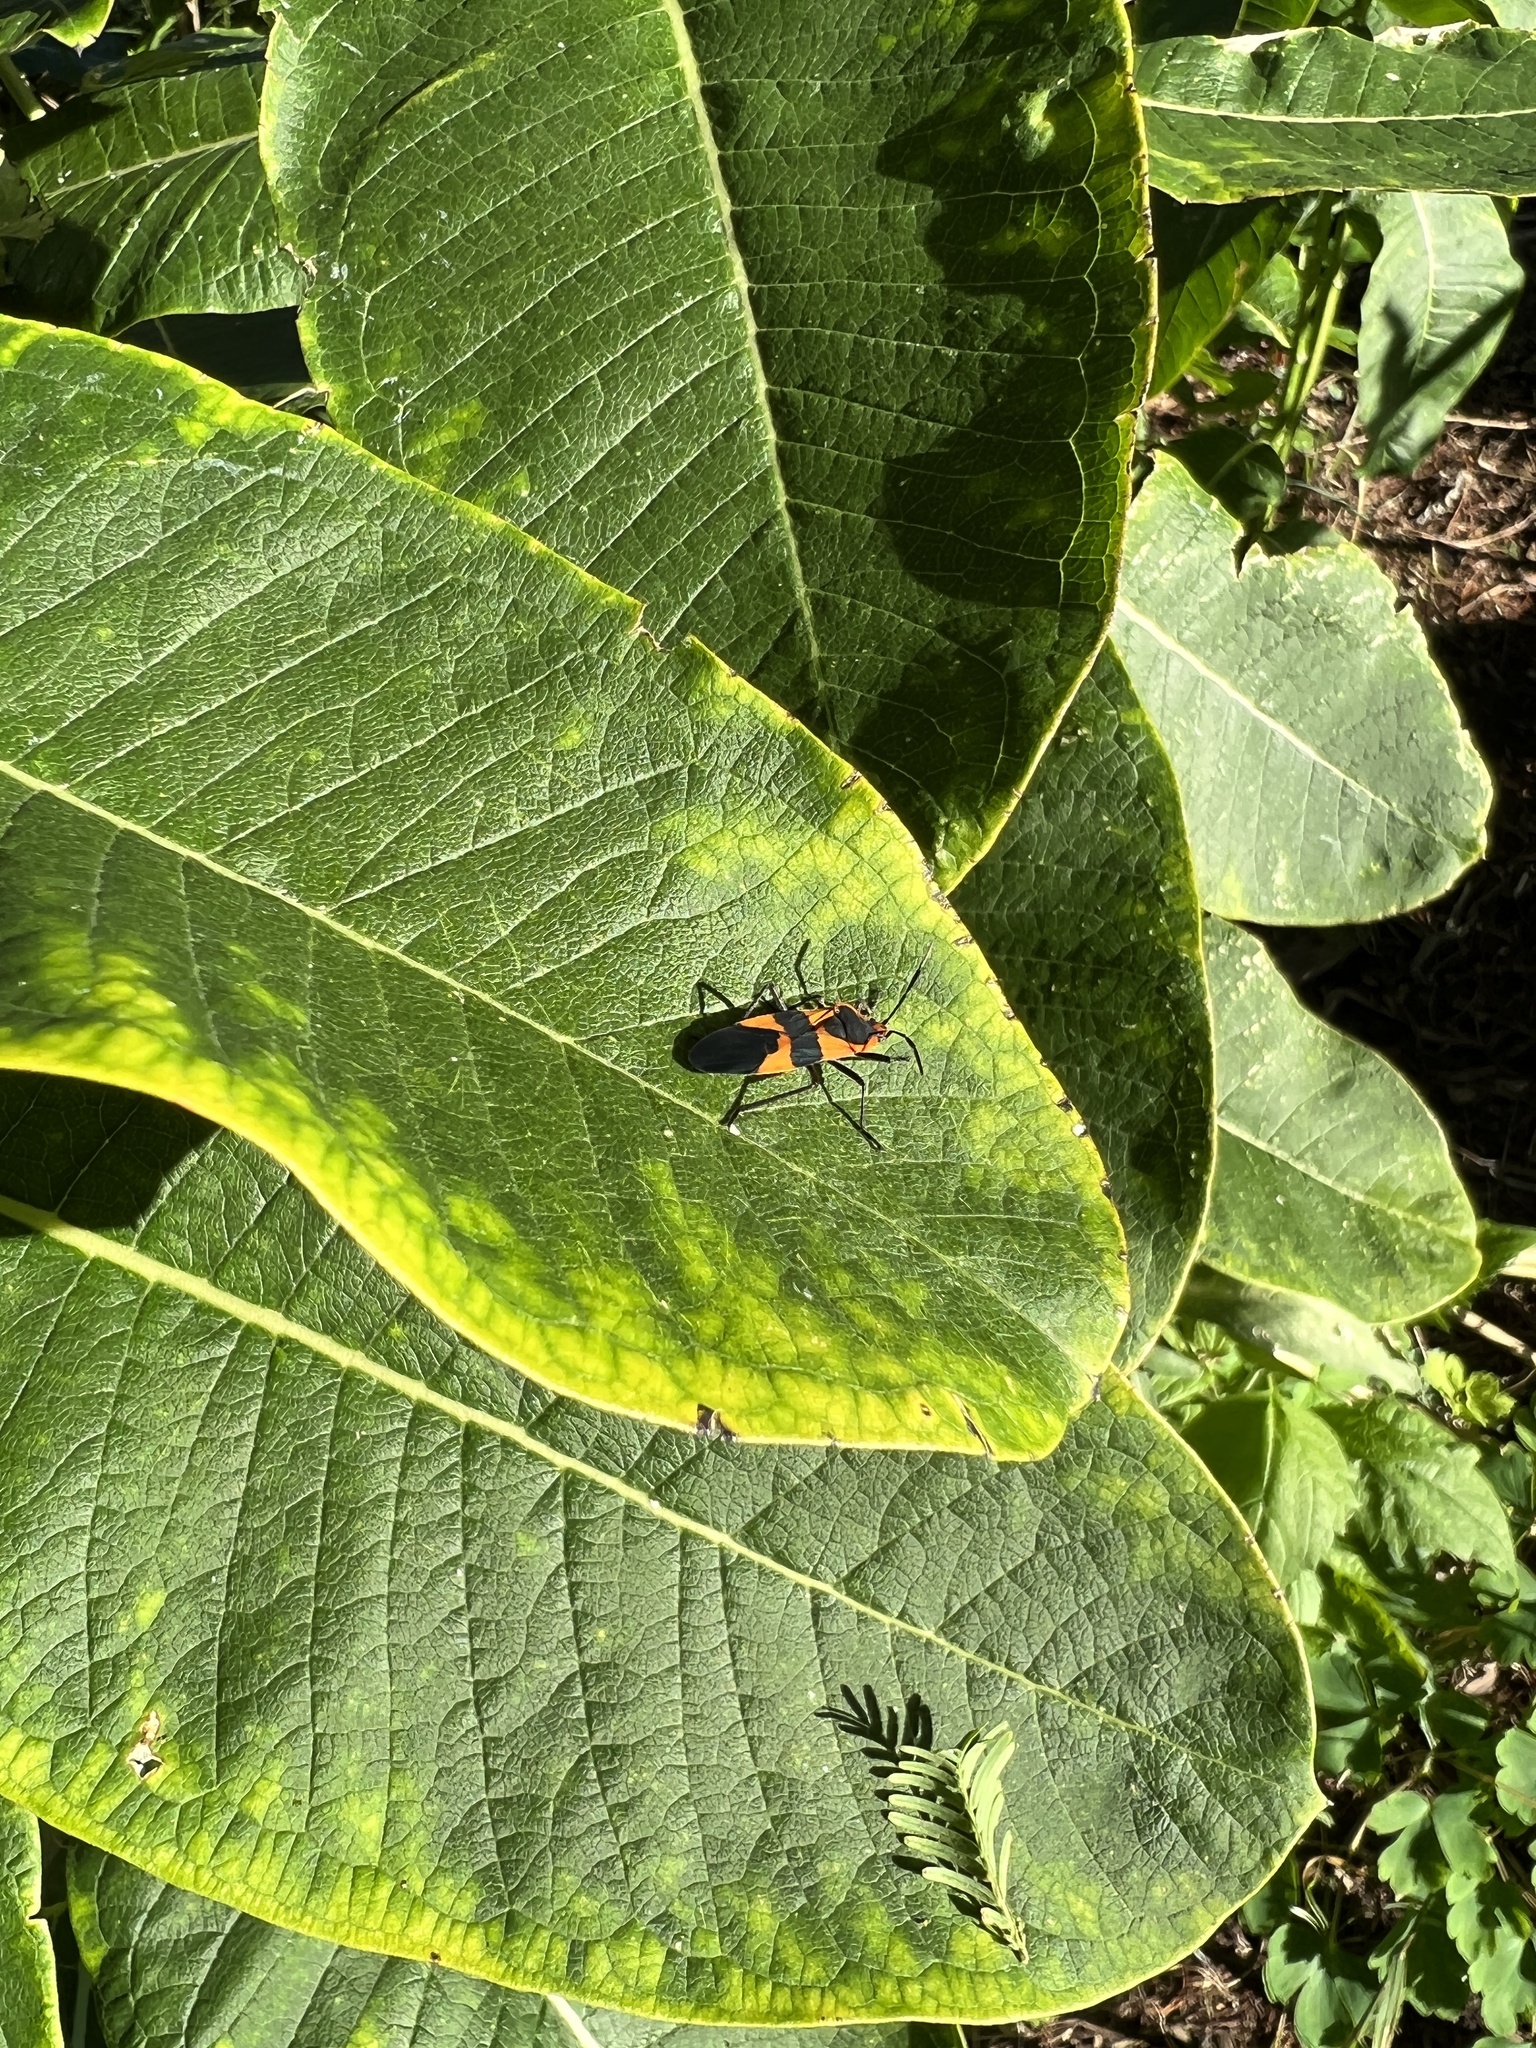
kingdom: Plantae
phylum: Tracheophyta
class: Magnoliopsida
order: Gentianales
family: Apocynaceae
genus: Asclepias
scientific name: Asclepias syriaca
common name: Common milkweed
